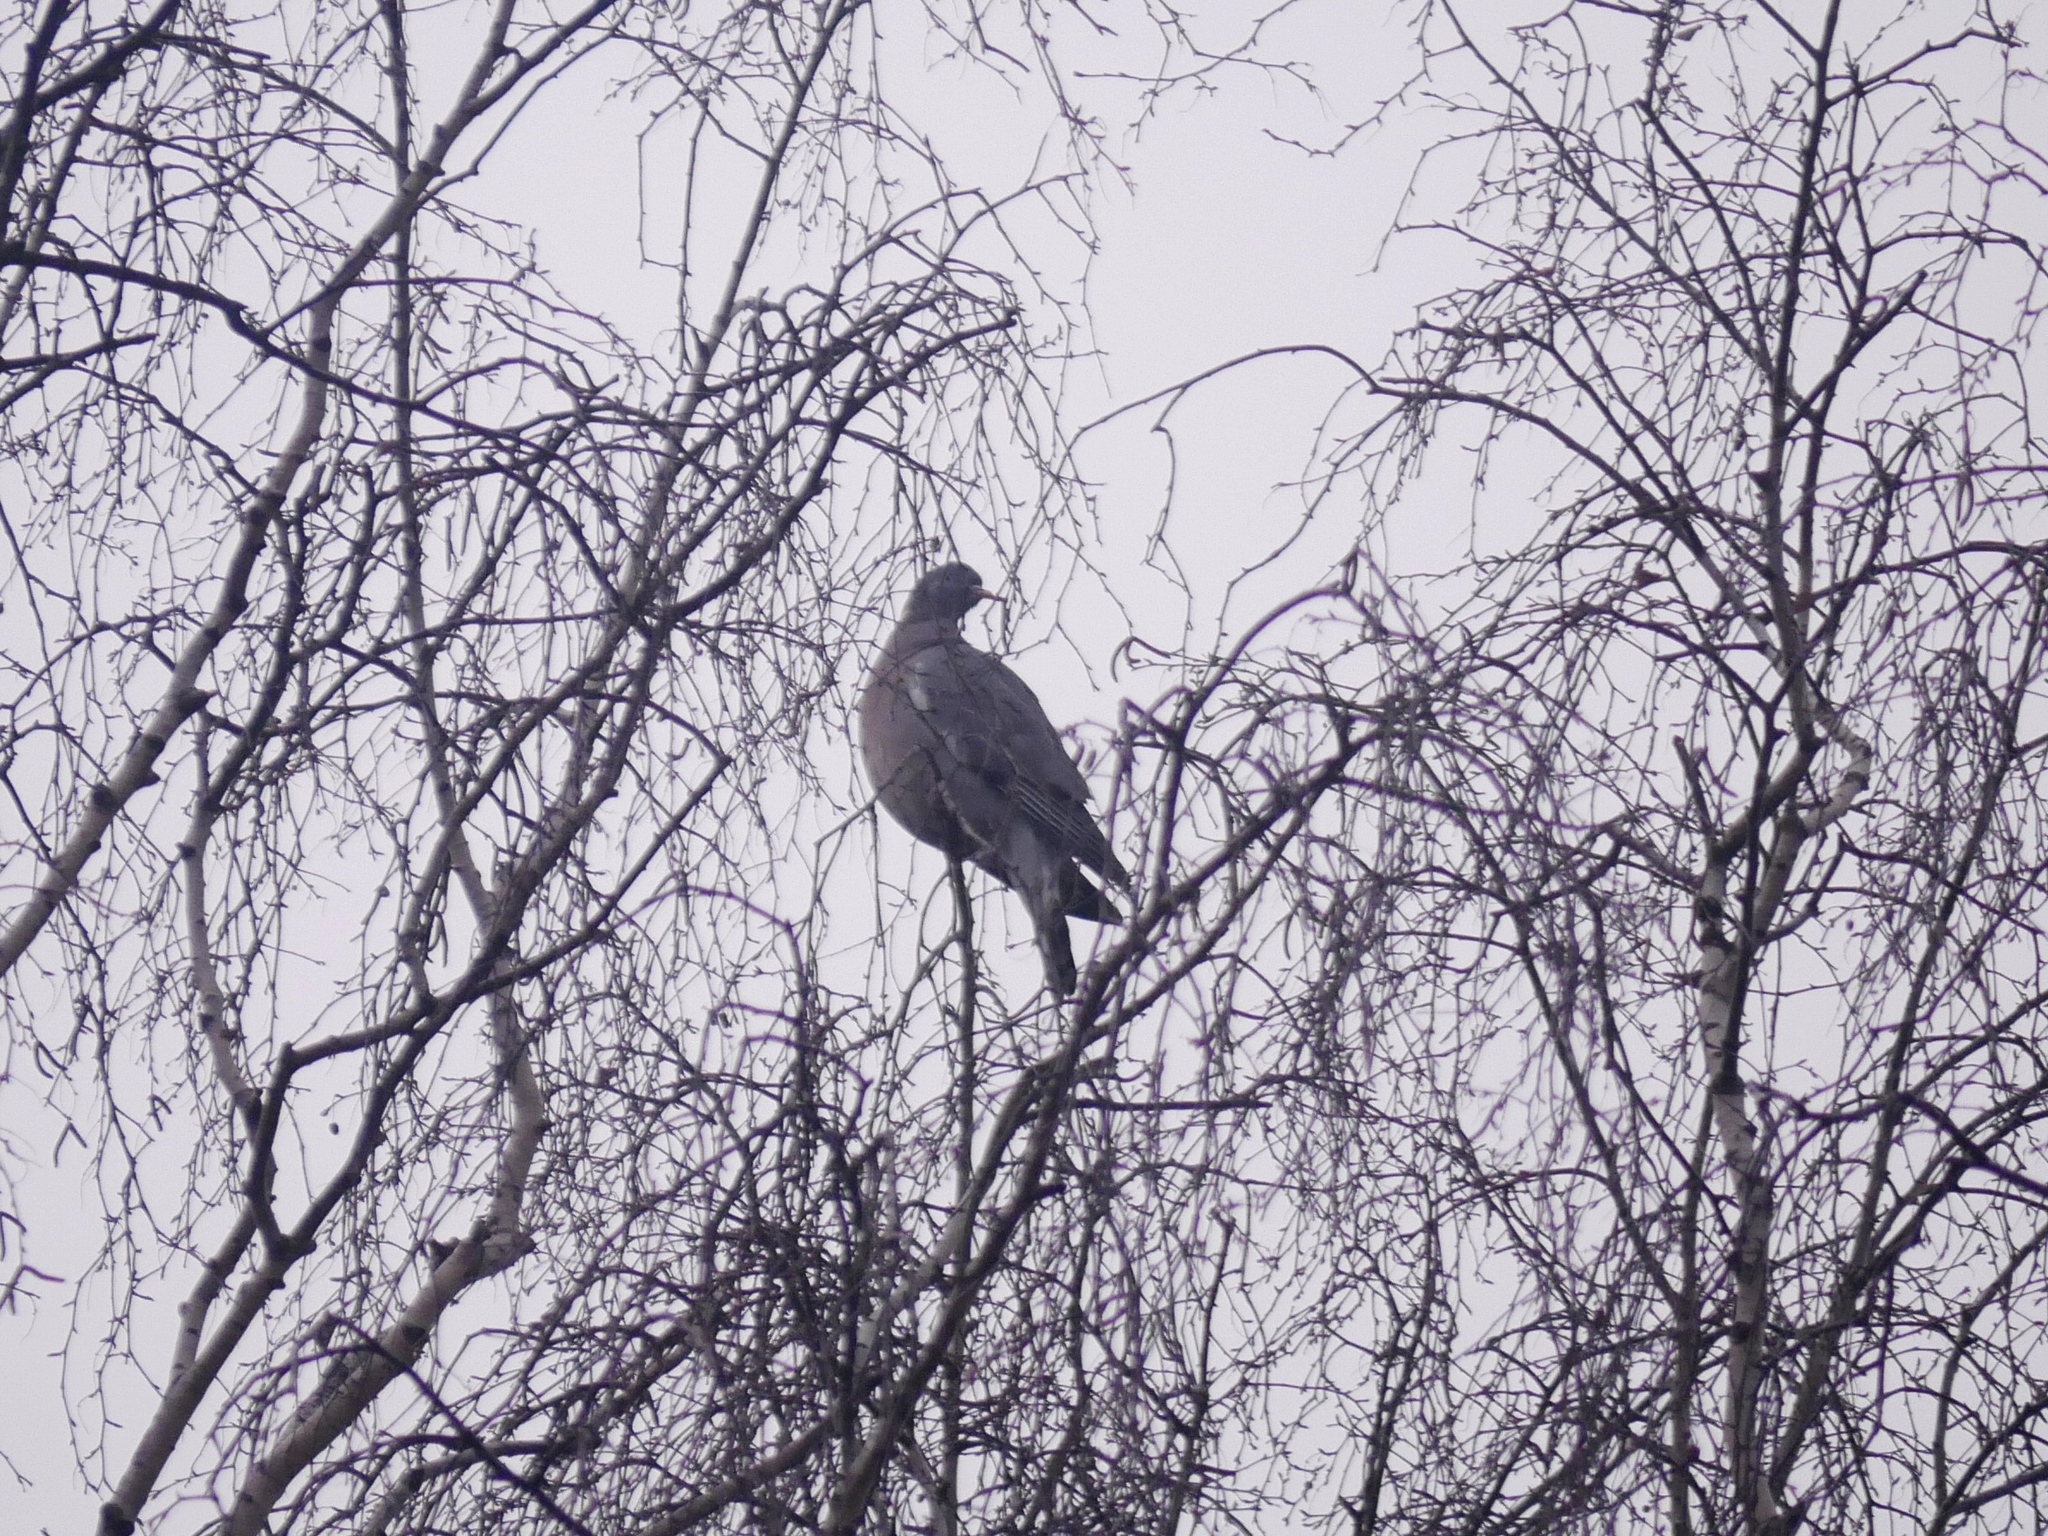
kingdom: Animalia
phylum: Chordata
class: Aves
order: Columbiformes
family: Columbidae
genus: Columba
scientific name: Columba palumbus
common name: Common wood pigeon
